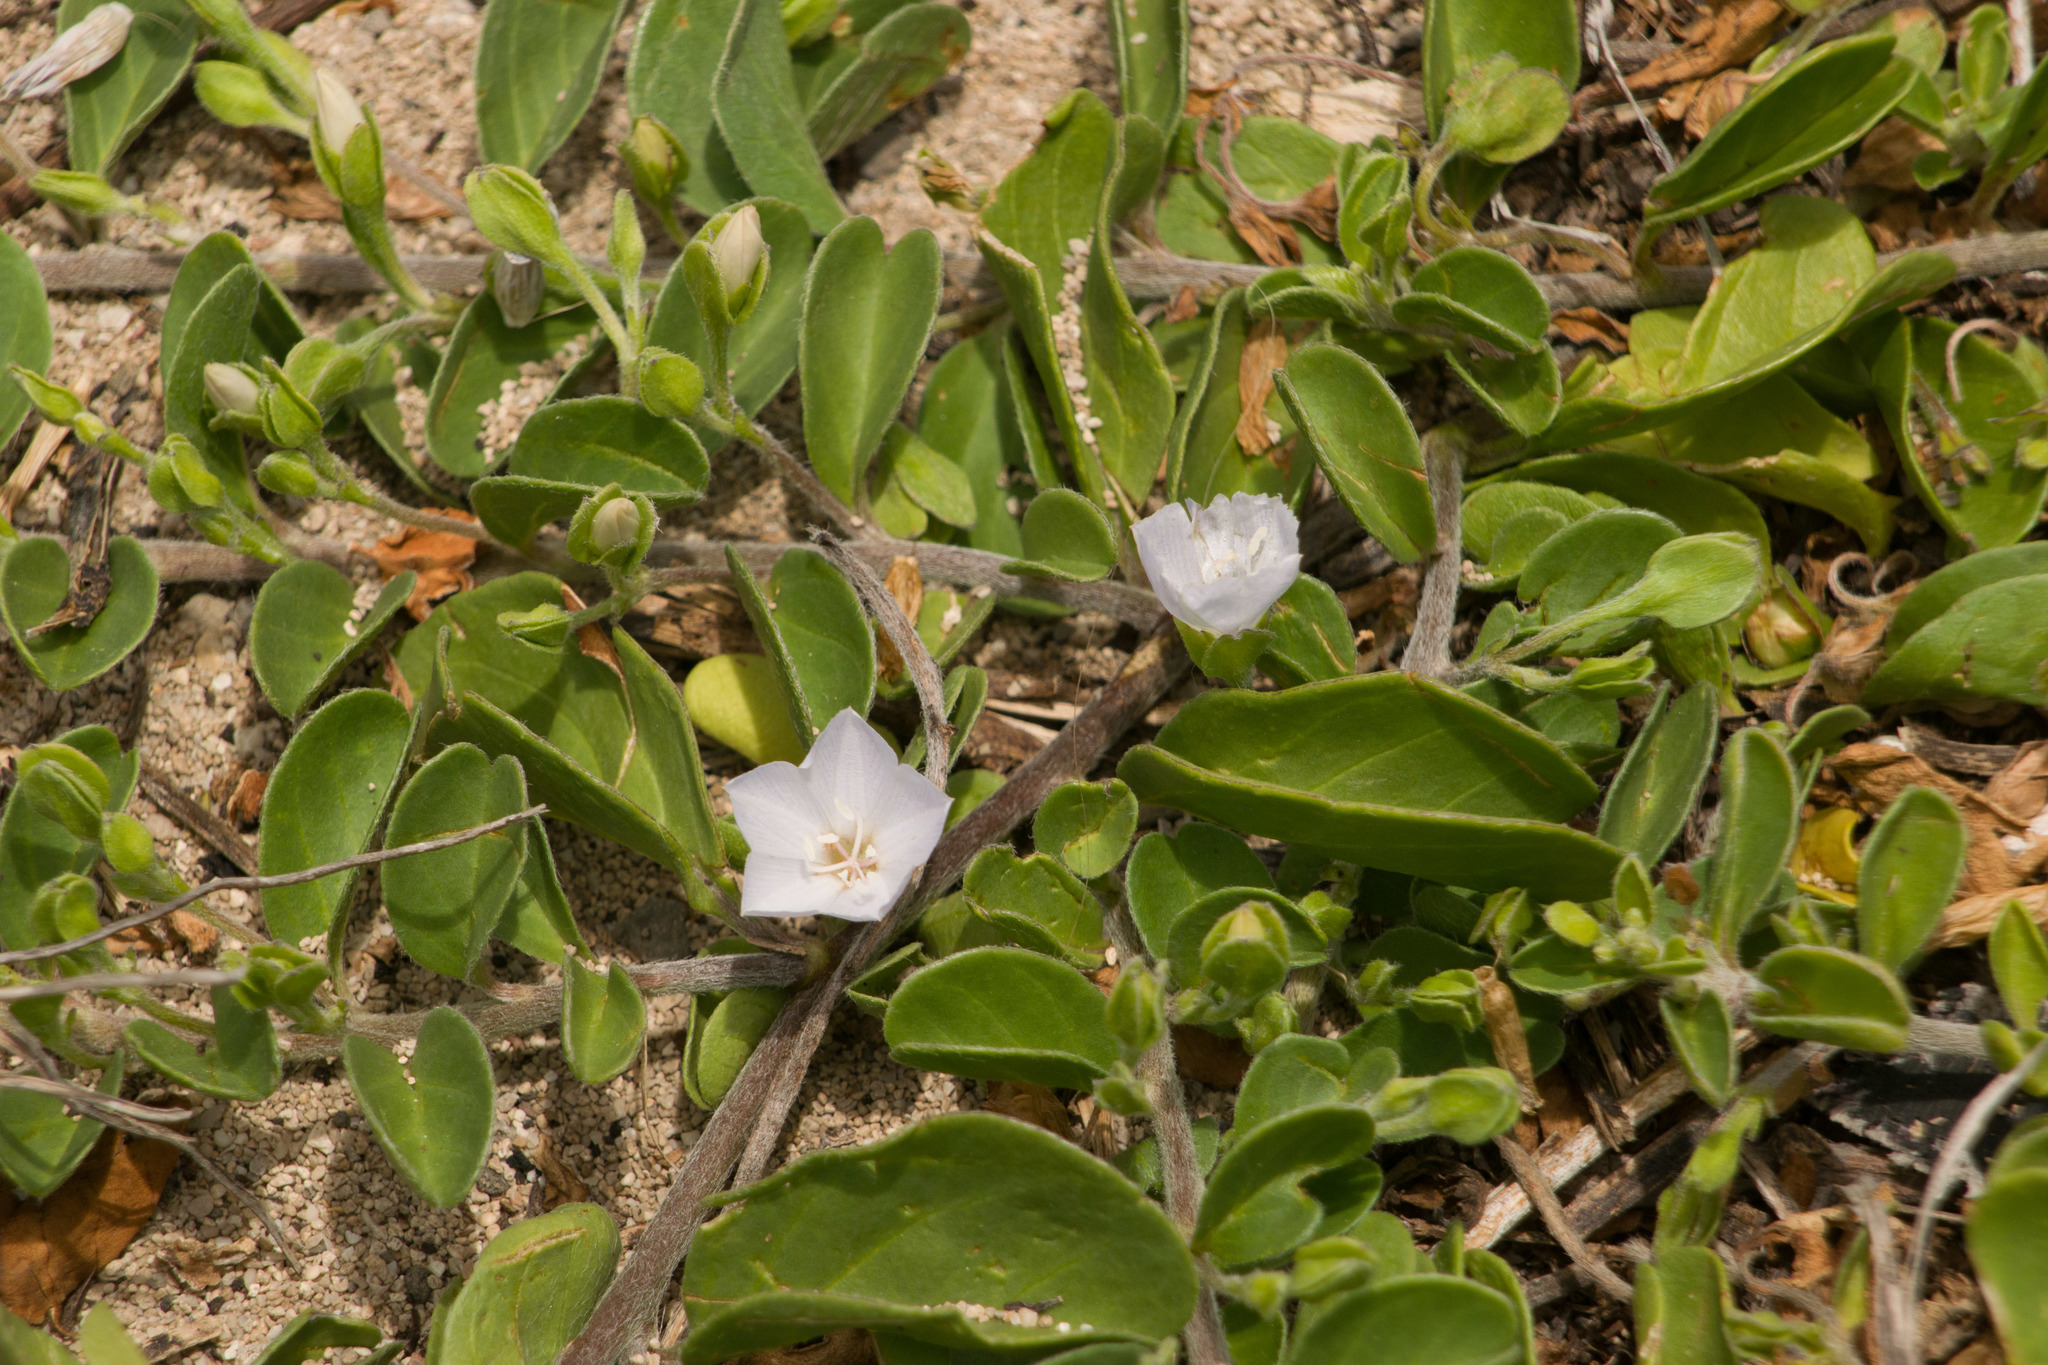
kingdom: Plantae
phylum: Tracheophyta
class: Magnoliopsida
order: Solanales
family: Convolvulaceae
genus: Jacquemontia
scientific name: Jacquemontia sandwicensis
